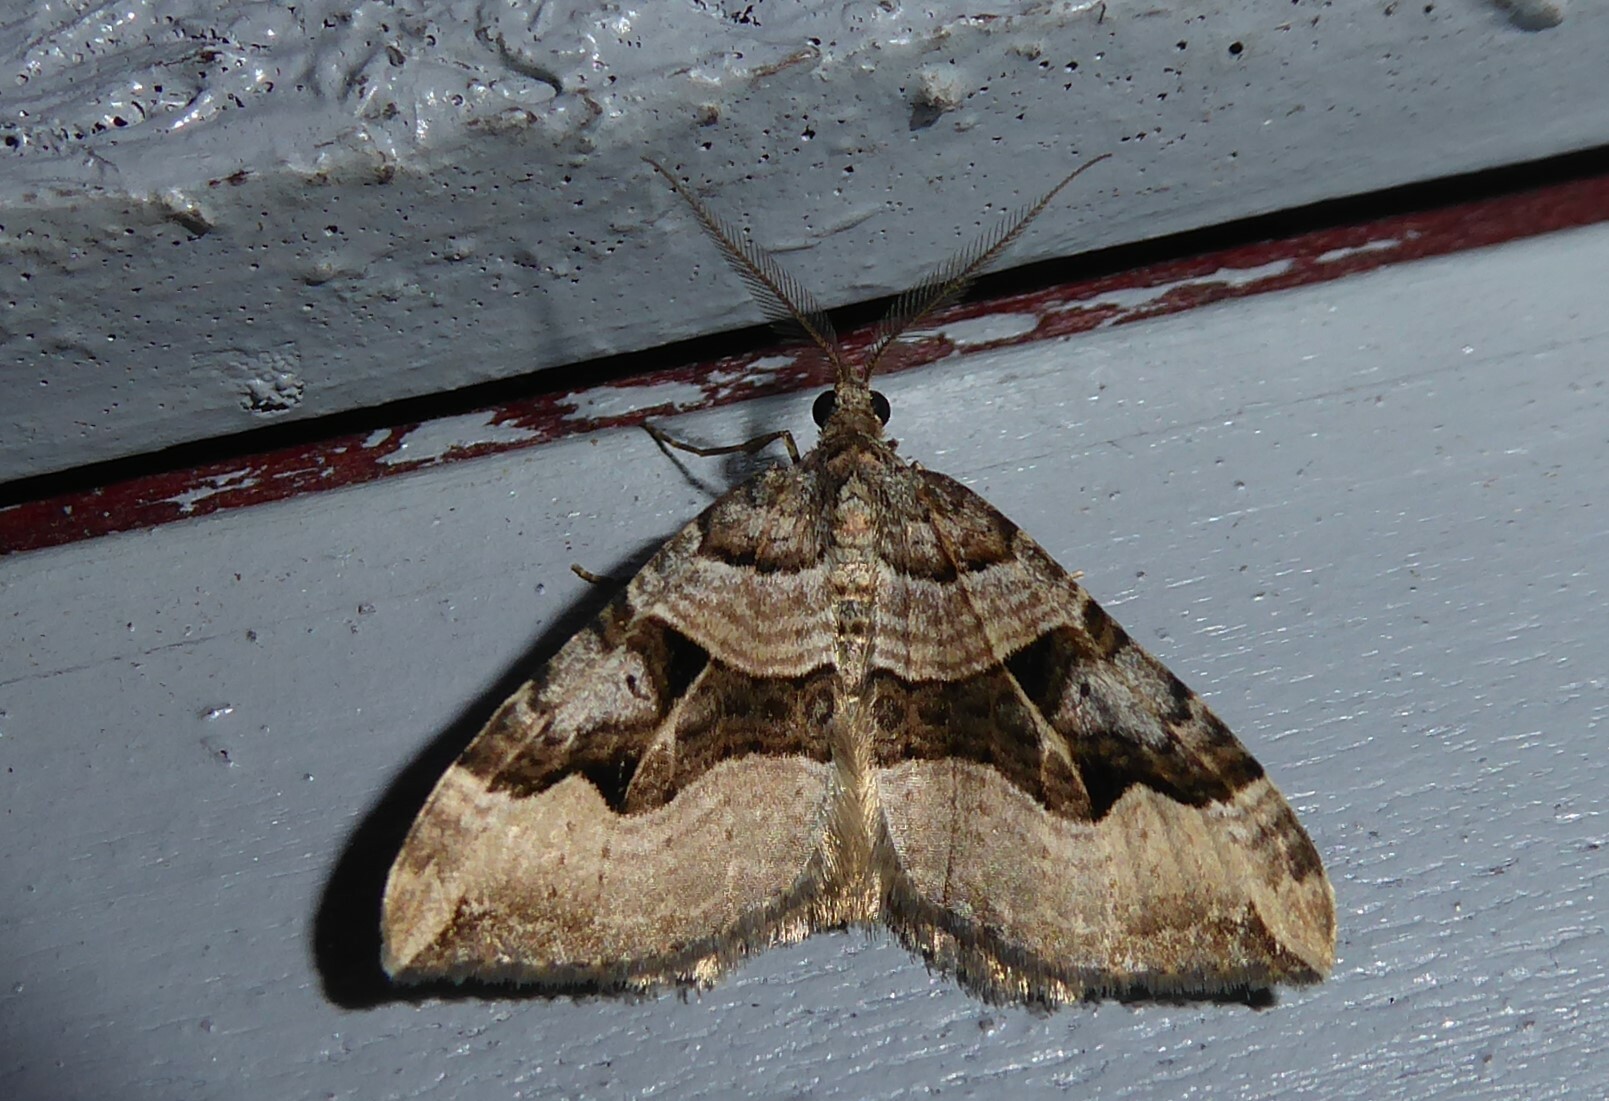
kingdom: Animalia
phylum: Arthropoda
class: Insecta
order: Lepidoptera
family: Geometridae
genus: Xanthorhoe
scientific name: Xanthorhoe semifissata
